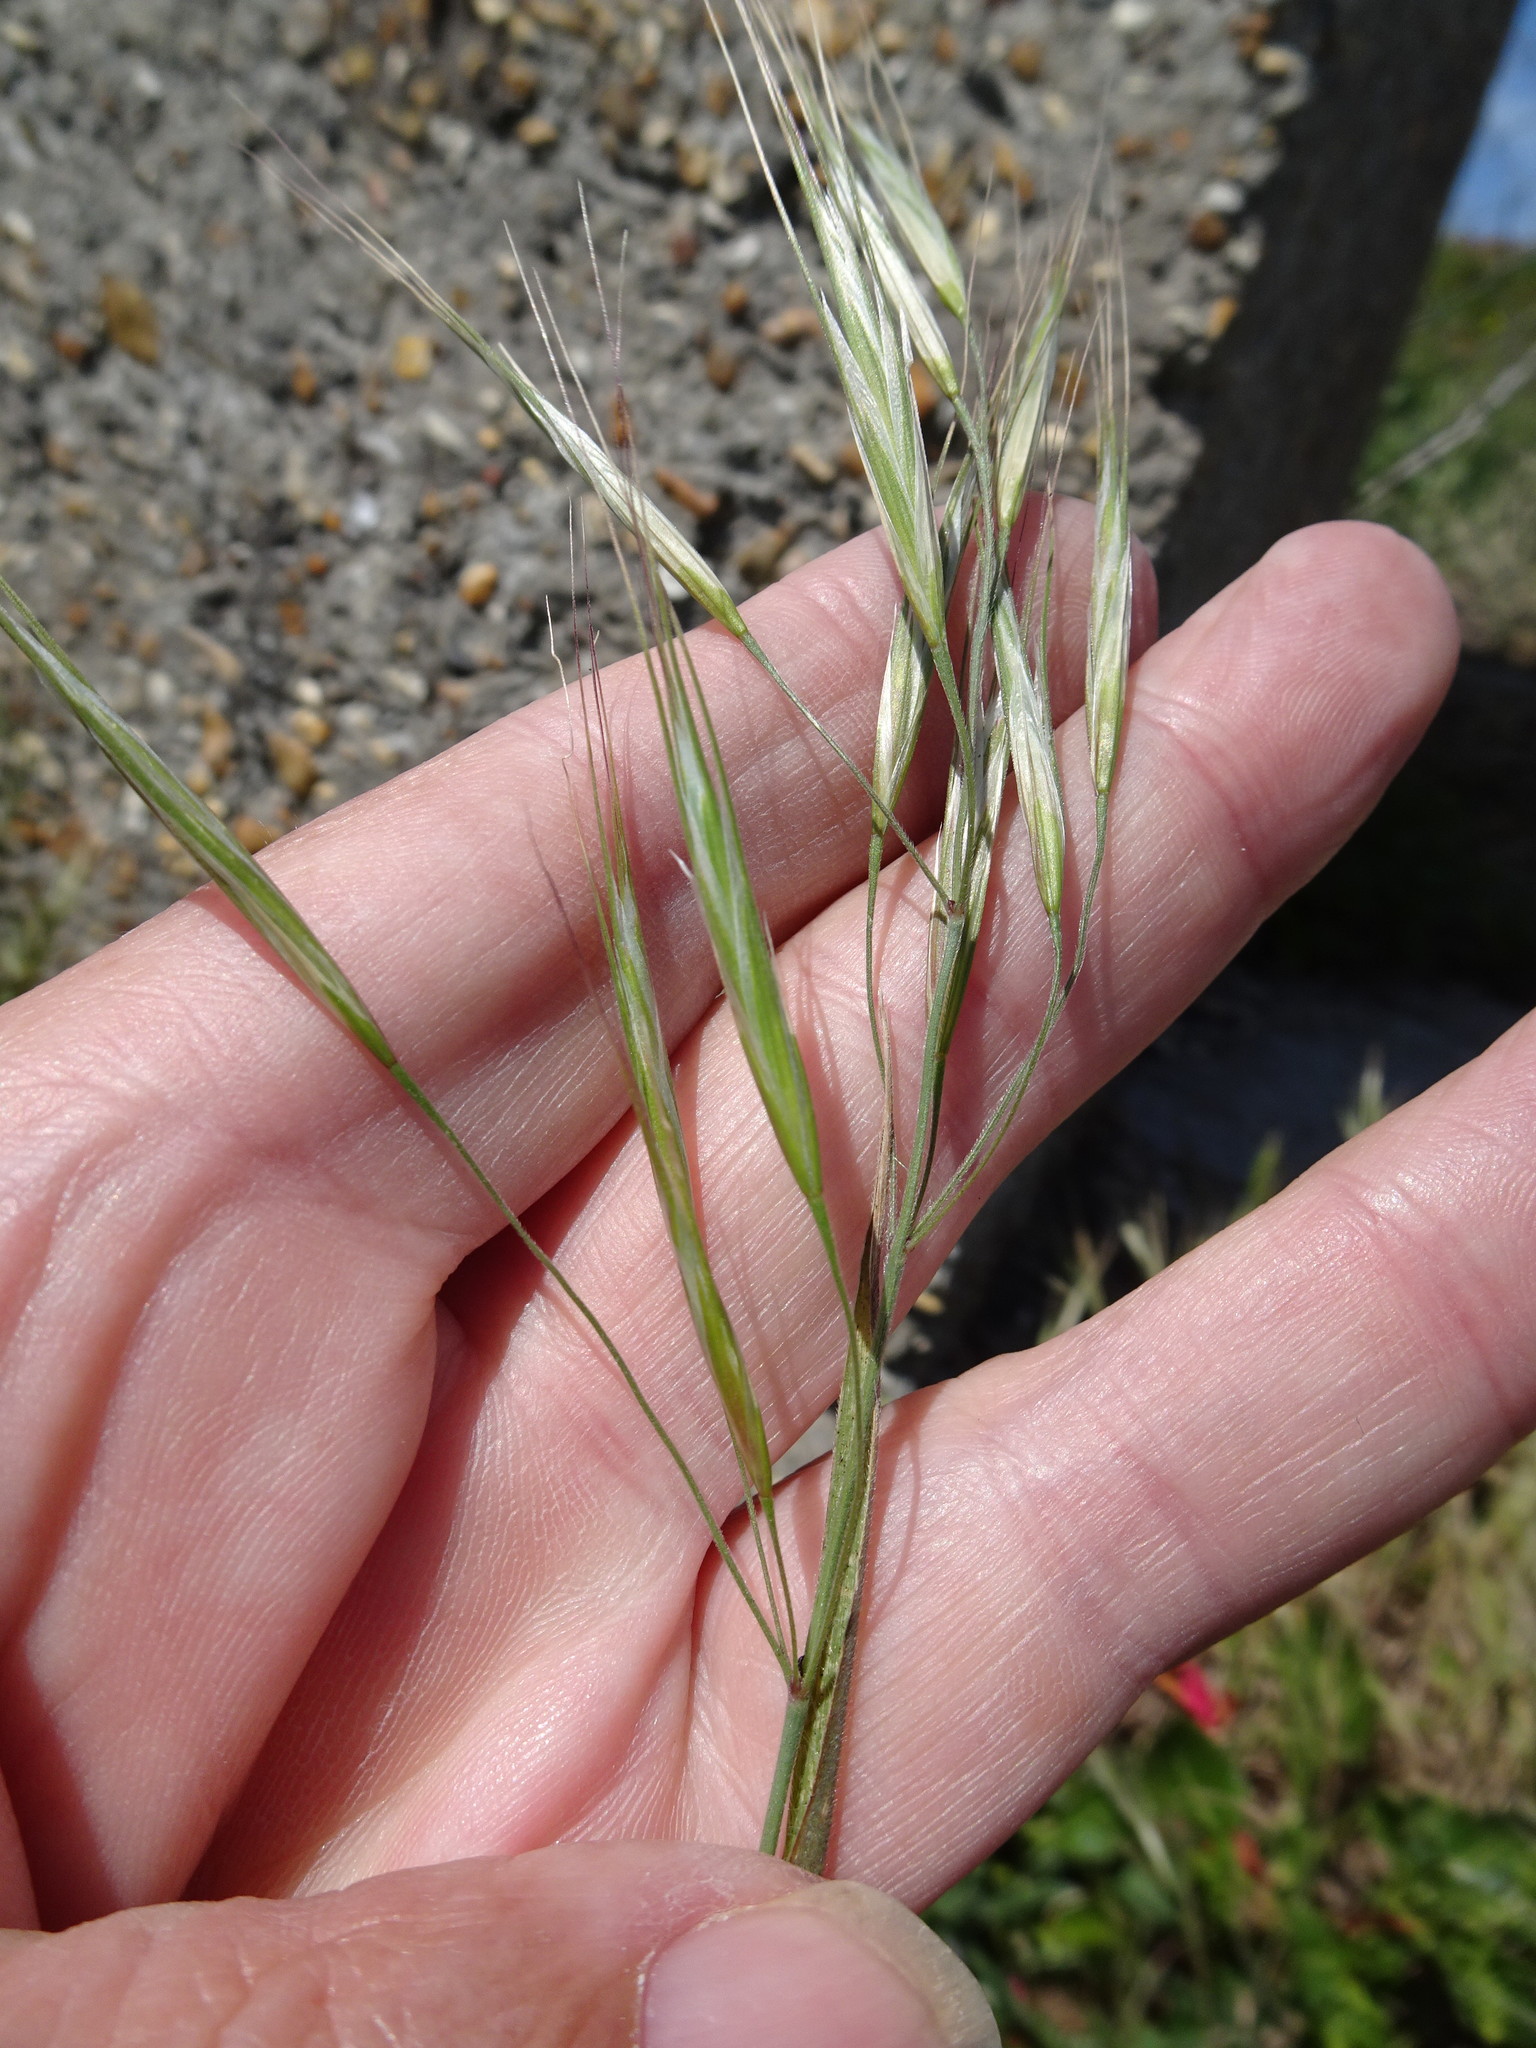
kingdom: Plantae
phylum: Tracheophyta
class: Liliopsida
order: Poales
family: Poaceae
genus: Bromus
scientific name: Bromus sterilis
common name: Poverty brome
